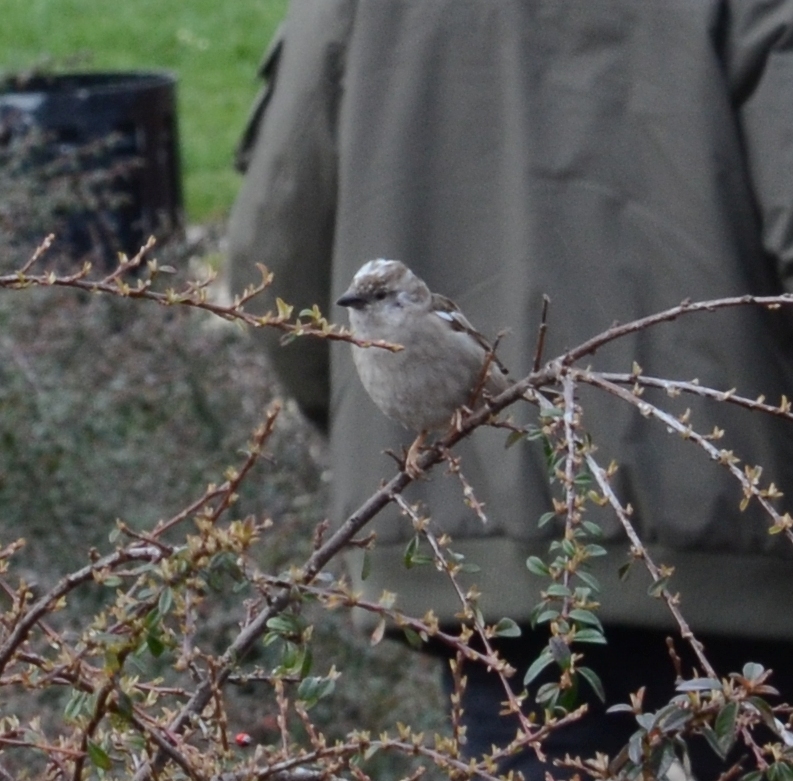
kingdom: Animalia
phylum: Chordata
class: Aves
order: Passeriformes
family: Passeridae
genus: Passer
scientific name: Passer domesticus
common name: House sparrow
